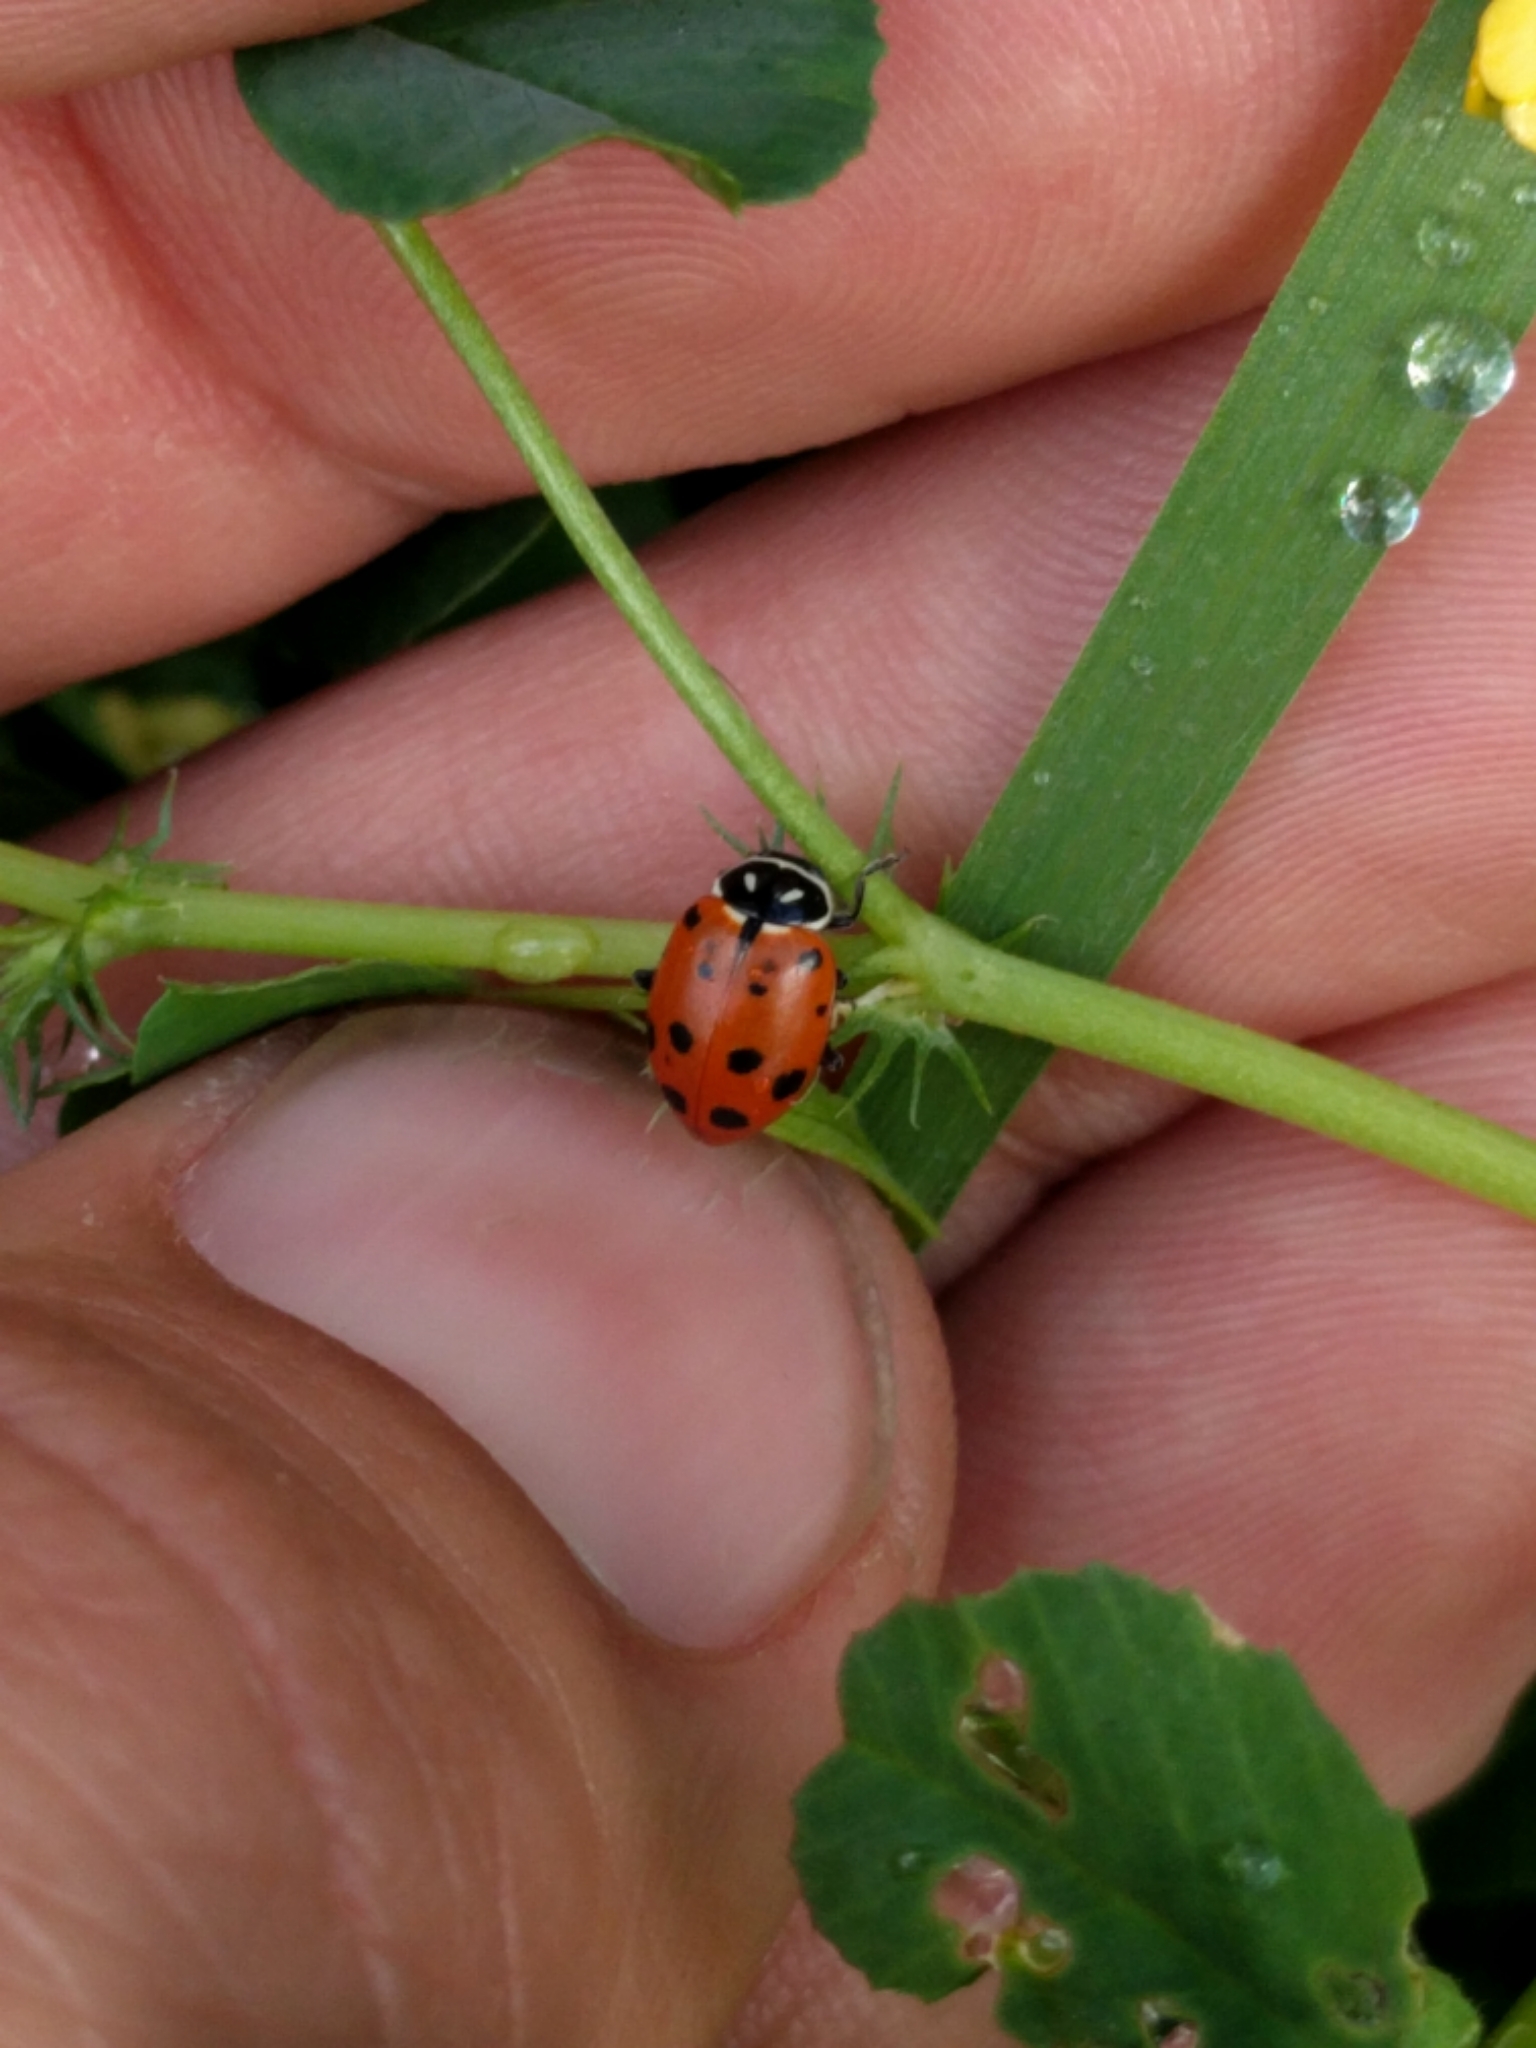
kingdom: Animalia
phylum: Arthropoda
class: Insecta
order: Coleoptera
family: Coccinellidae
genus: Hippodamia
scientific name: Hippodamia convergens
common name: Convergent lady beetle
